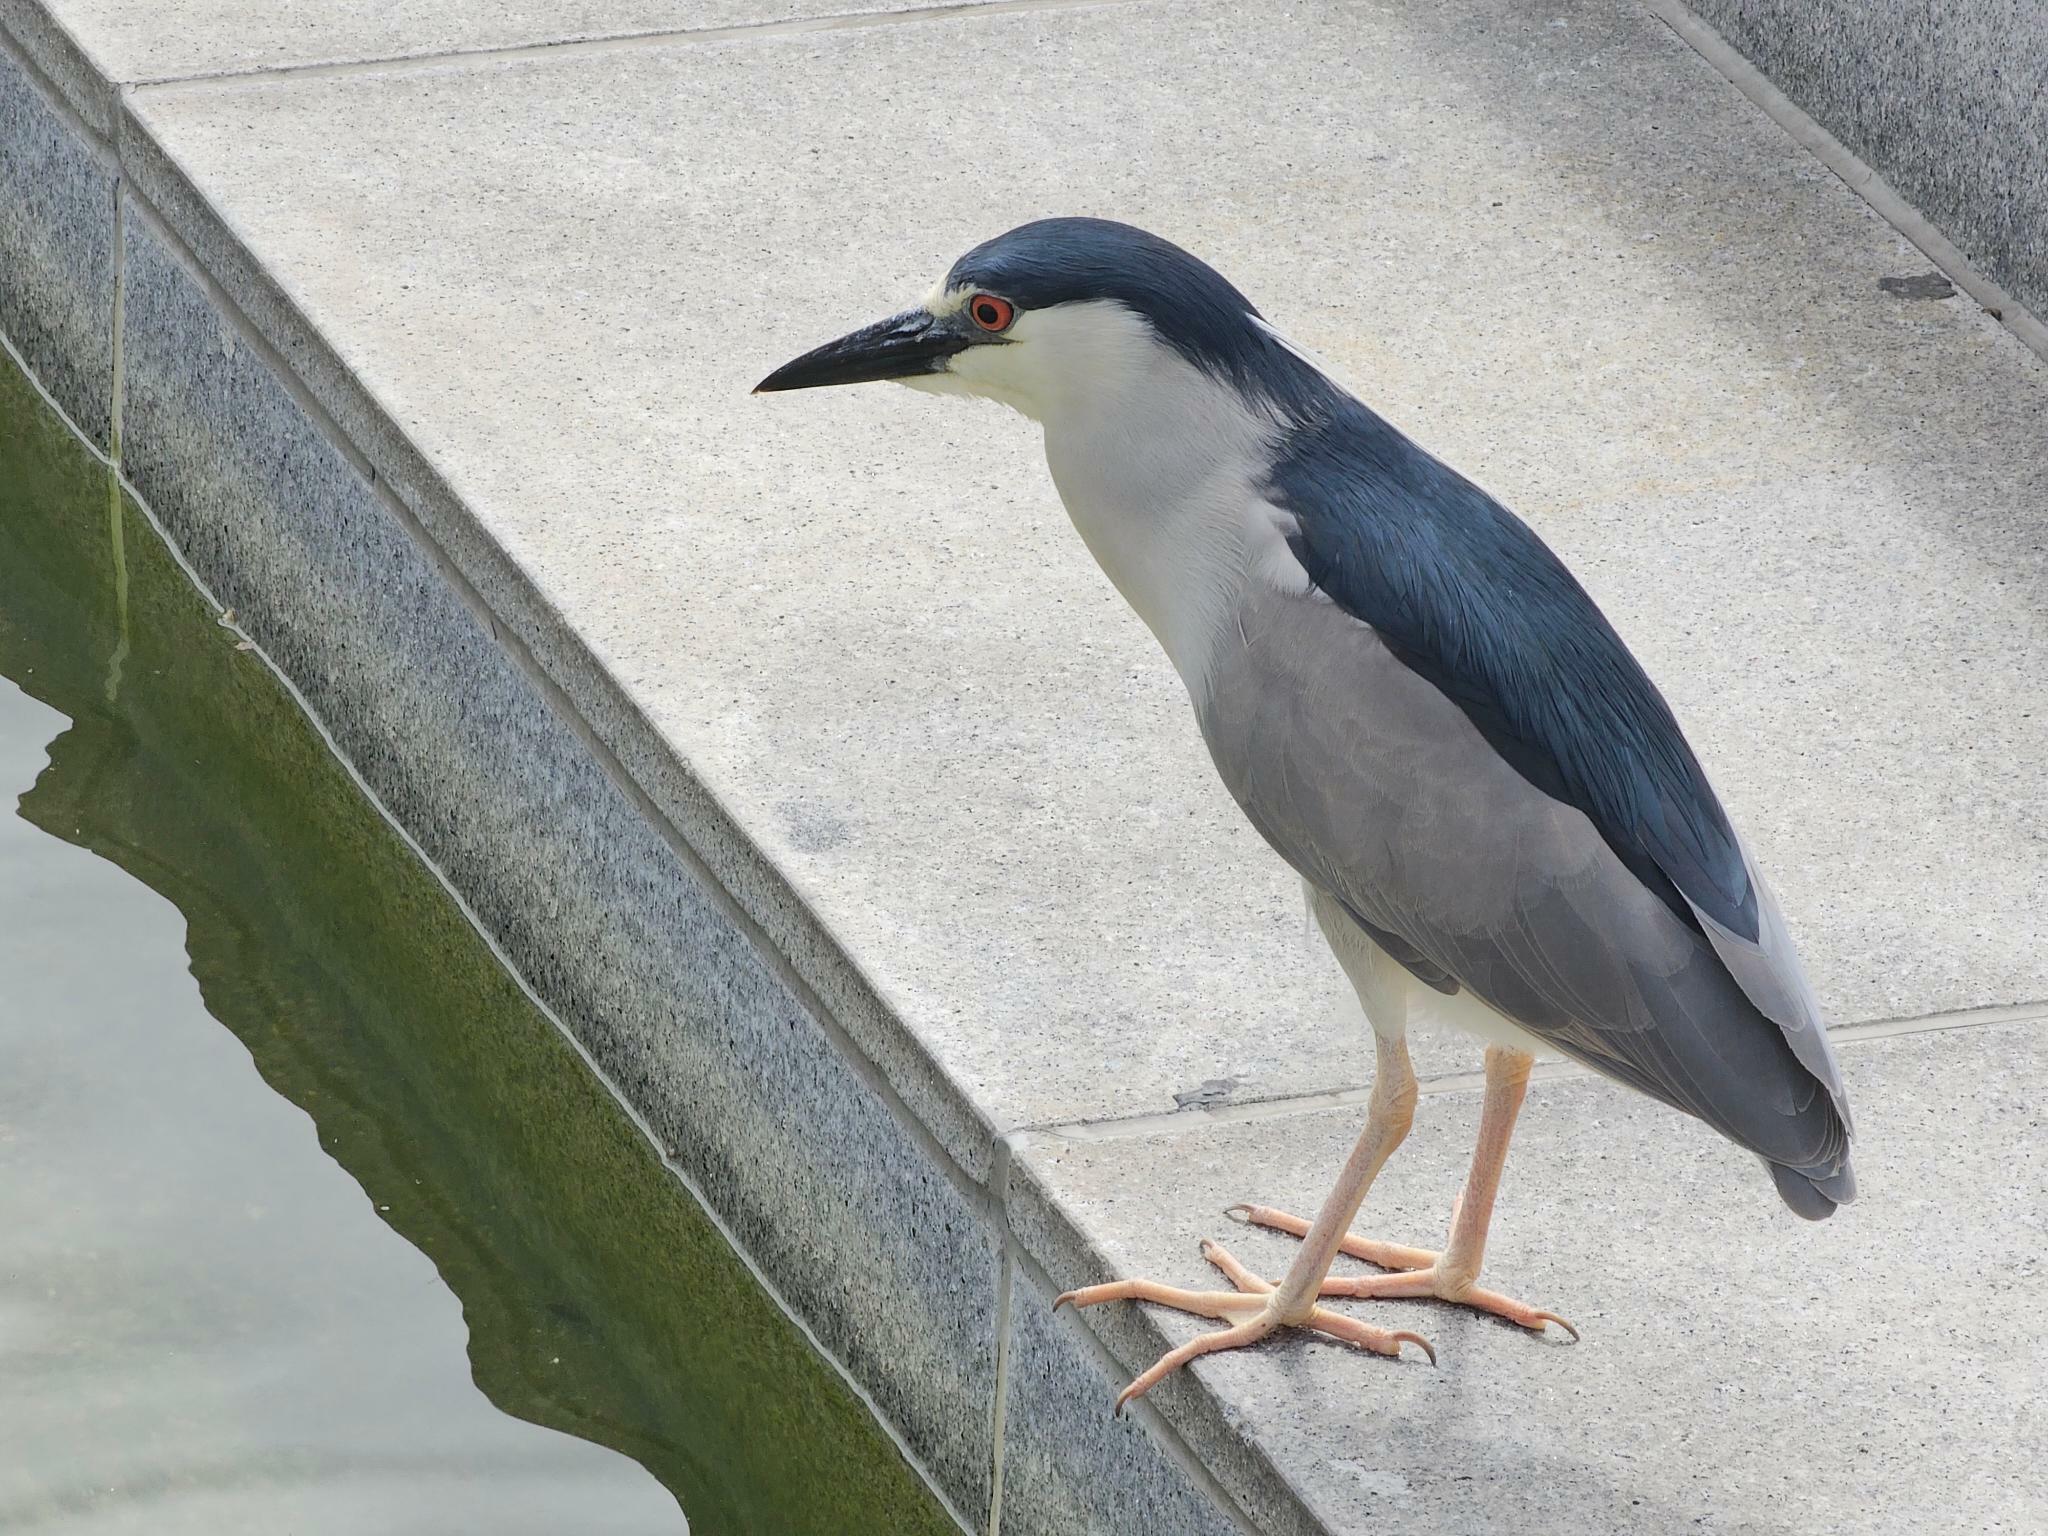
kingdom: Animalia
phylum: Chordata
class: Aves
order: Pelecaniformes
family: Ardeidae
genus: Nycticorax
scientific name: Nycticorax nycticorax
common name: Black-crowned night heron
